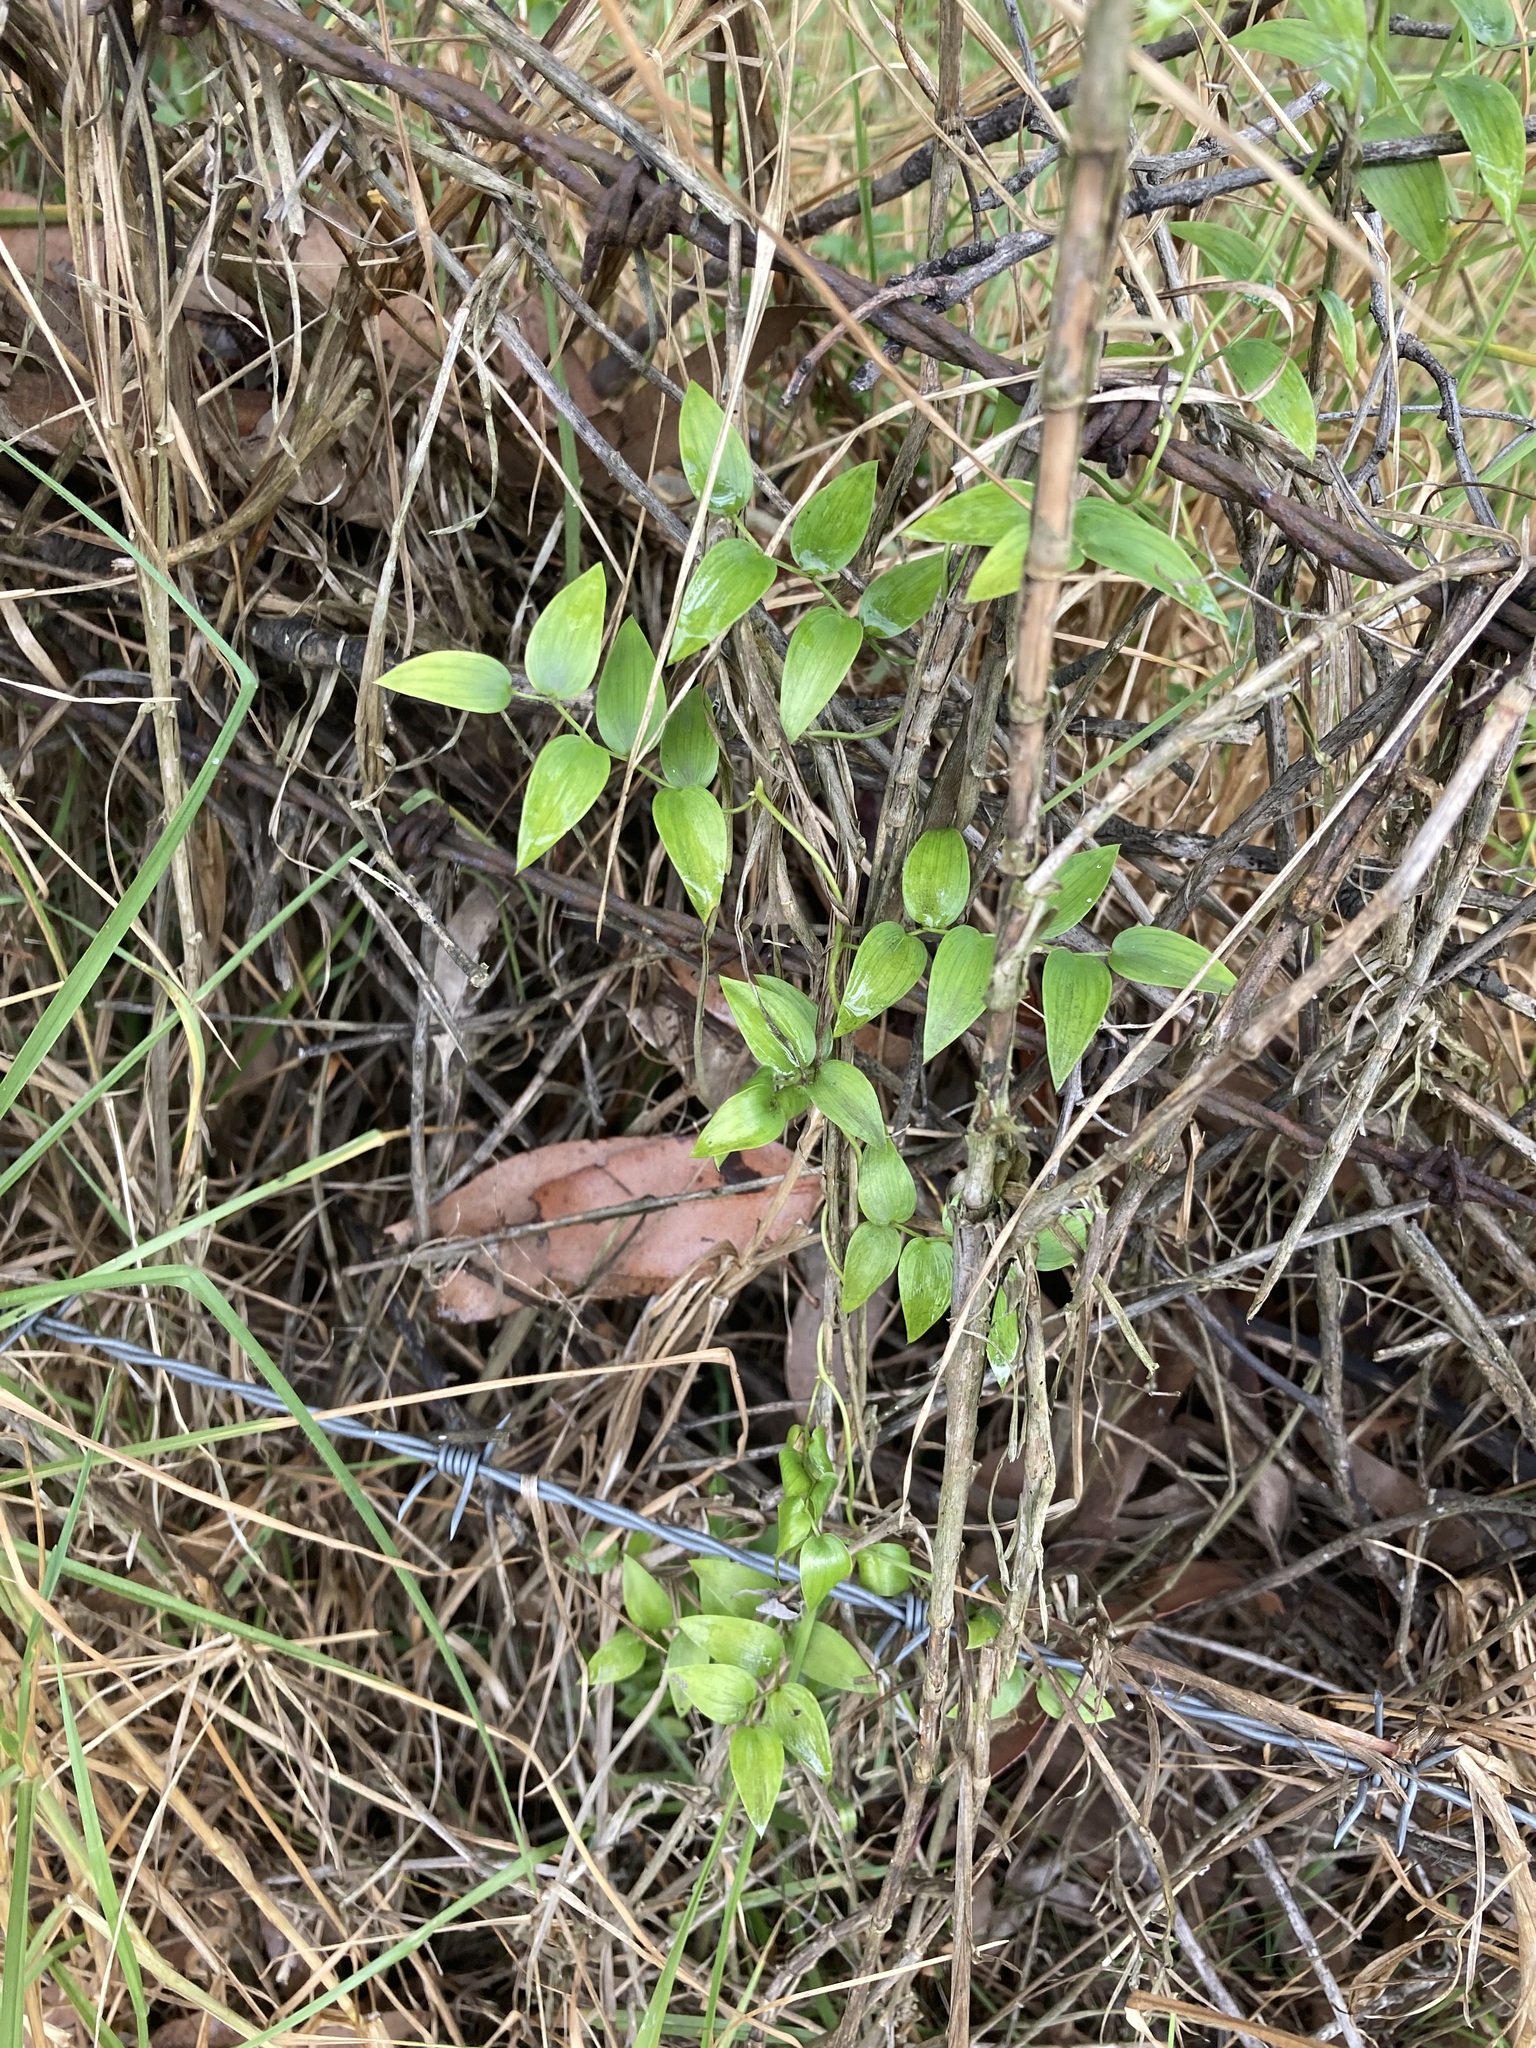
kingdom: Plantae
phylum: Tracheophyta
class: Liliopsida
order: Asparagales
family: Asparagaceae
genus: Asparagus
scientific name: Asparagus asparagoides
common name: African asparagus fern
